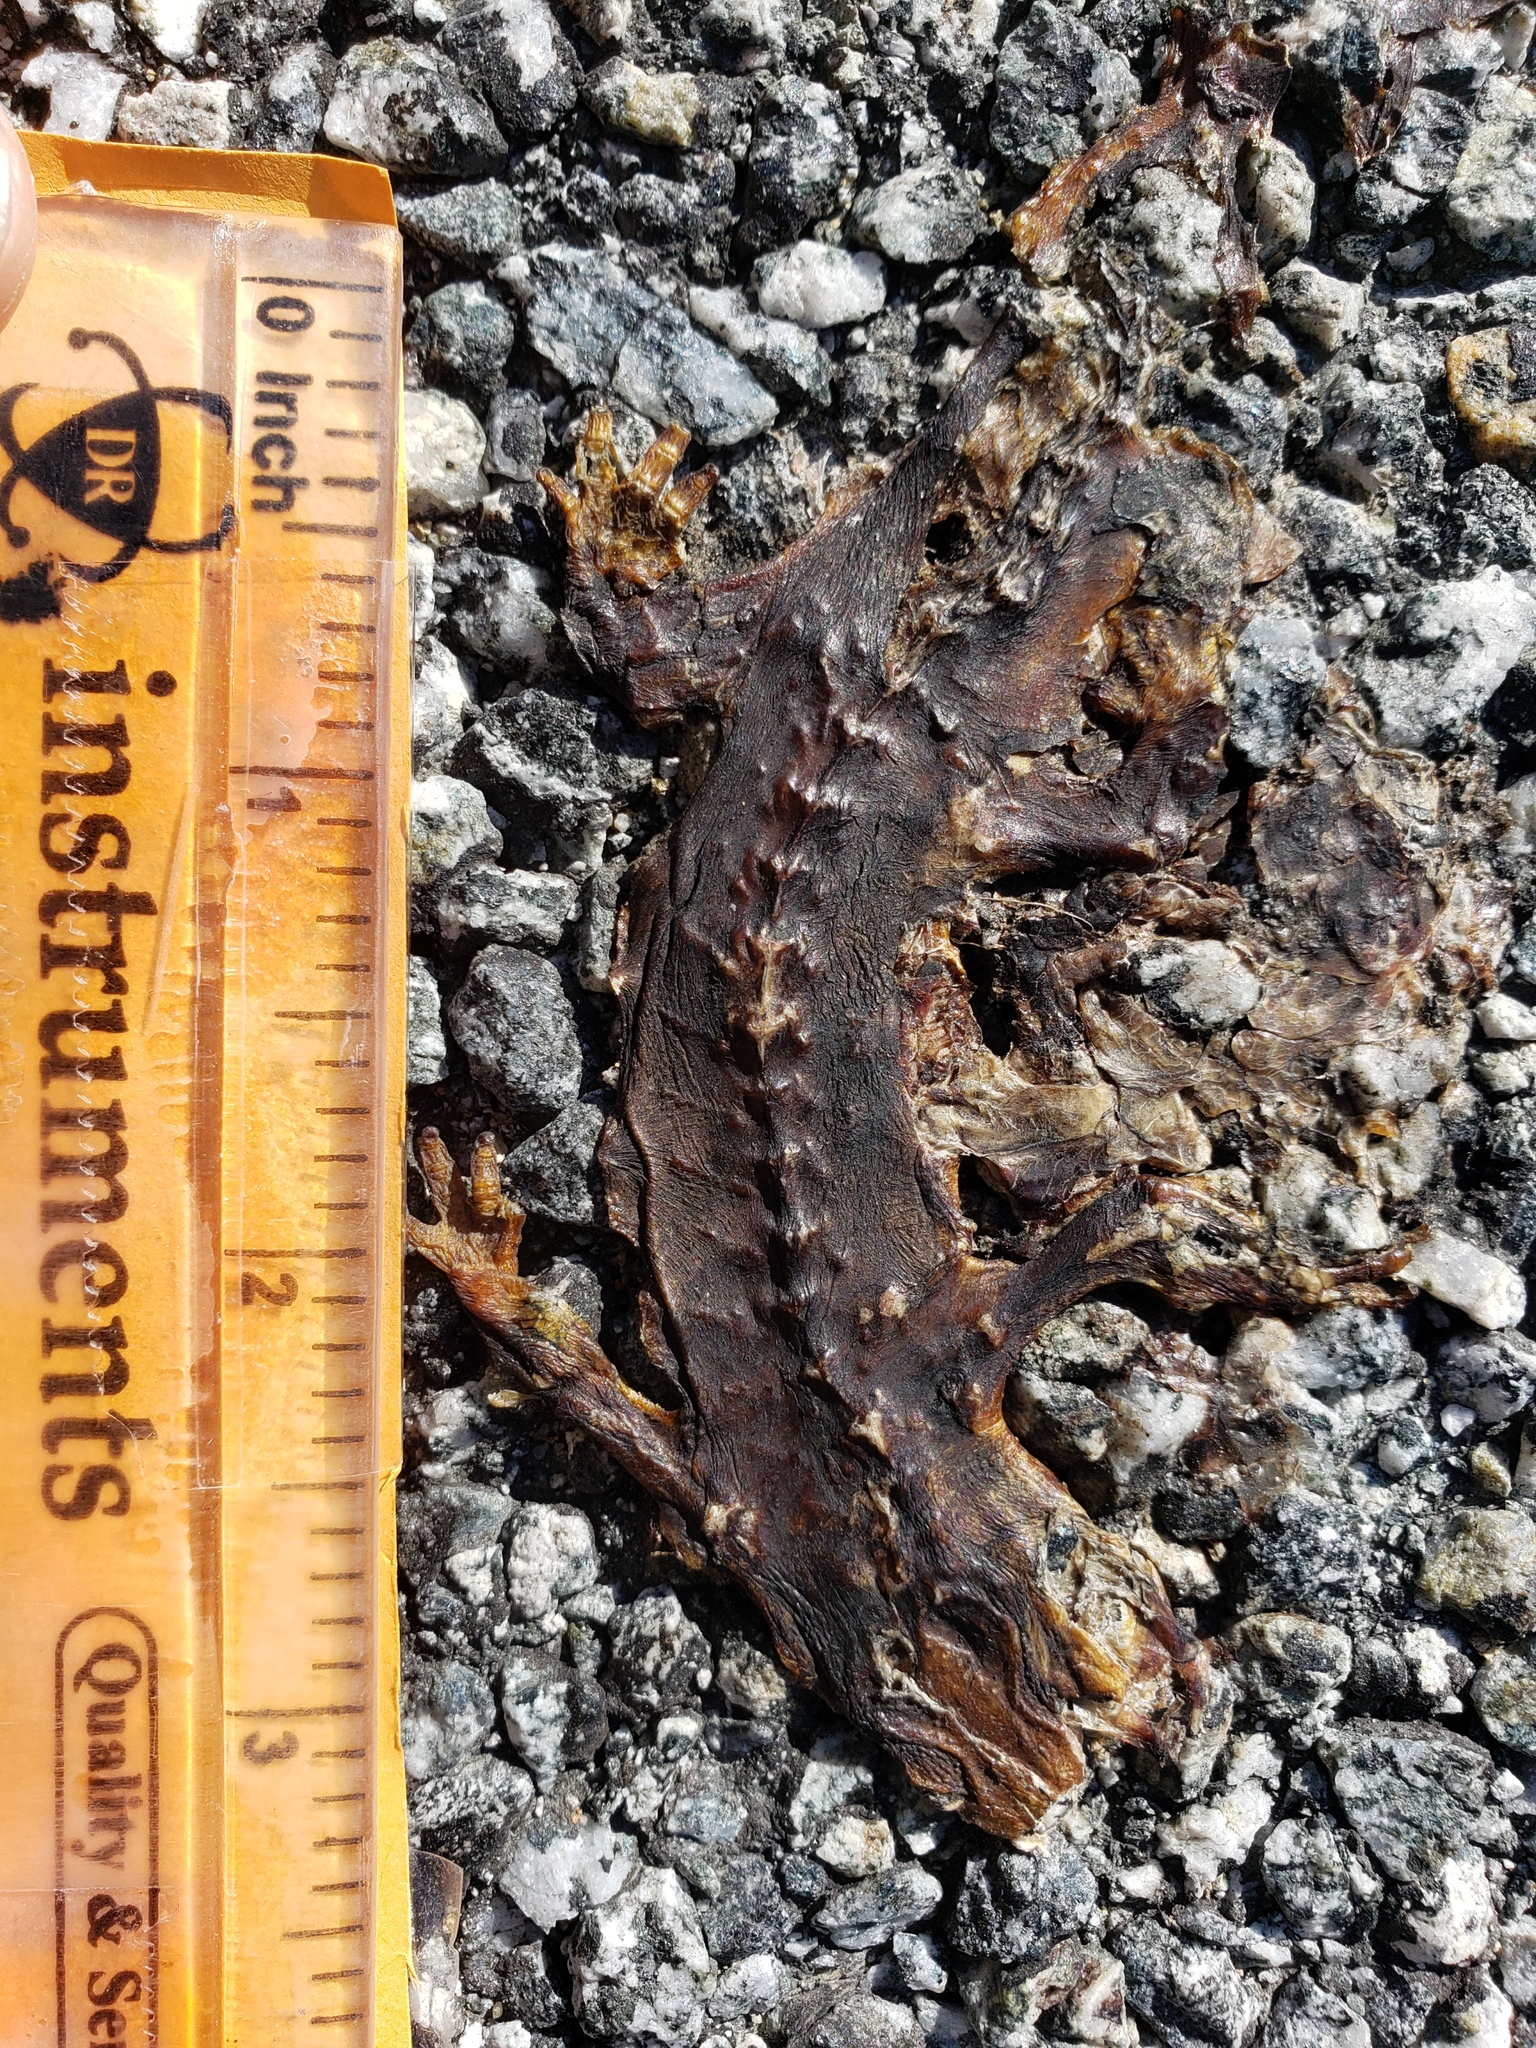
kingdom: Animalia
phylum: Chordata
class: Amphibia
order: Caudata
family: Salamandridae
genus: Taricha
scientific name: Taricha
